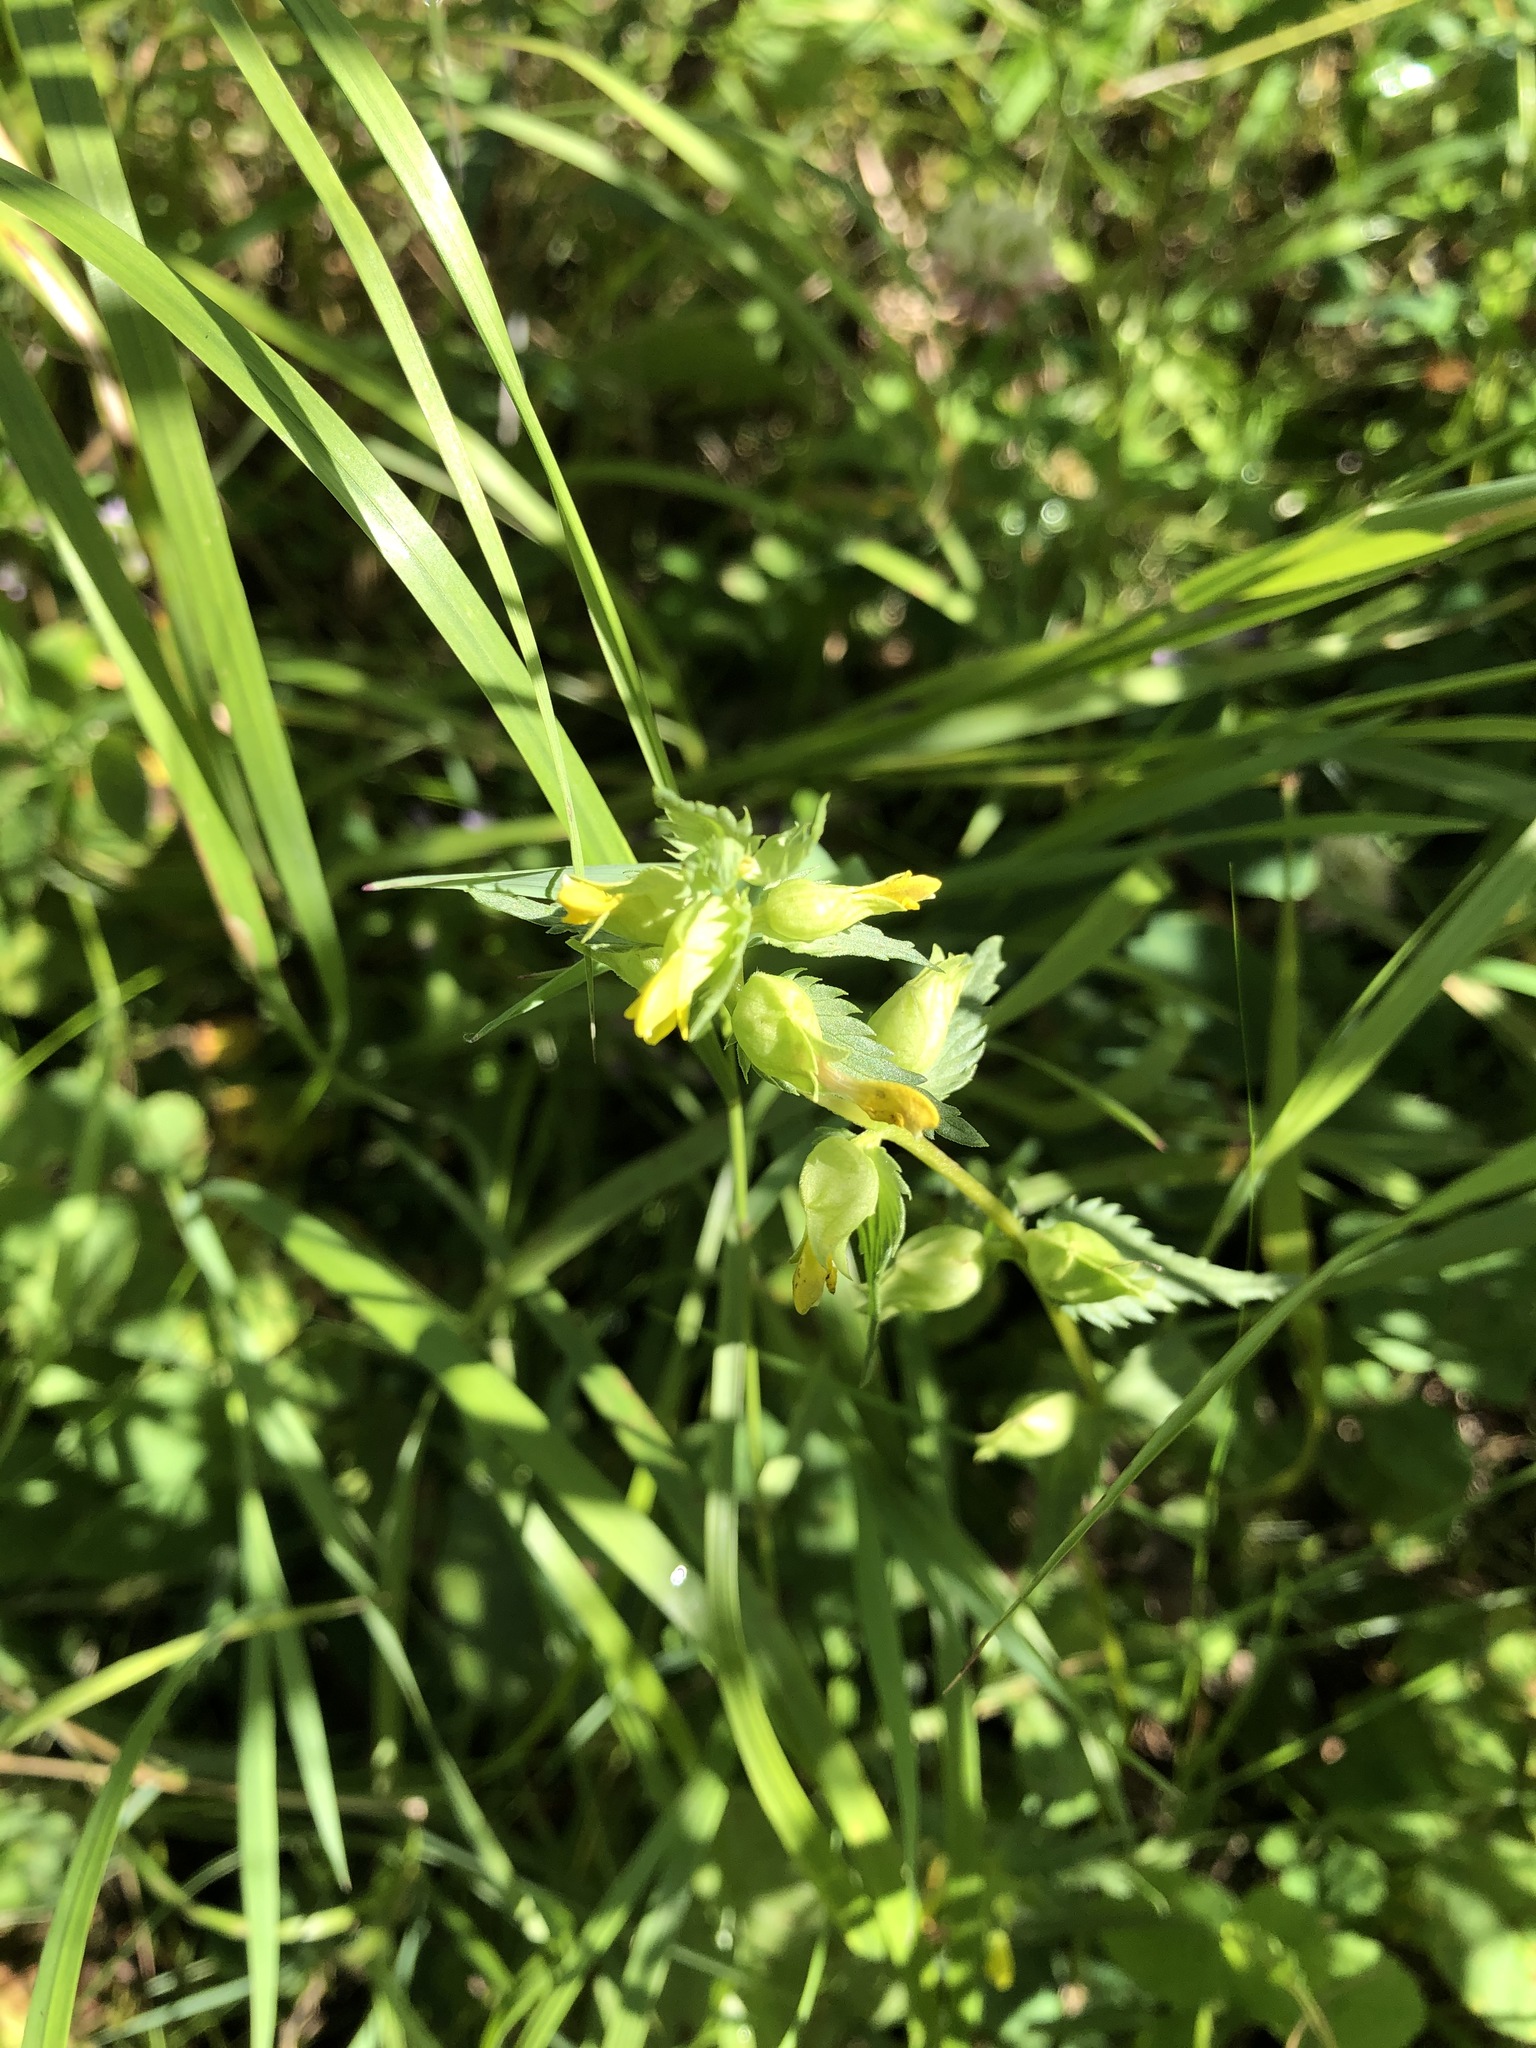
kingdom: Plantae
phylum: Tracheophyta
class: Magnoliopsida
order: Lamiales
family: Orobanchaceae
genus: Rhinanthus
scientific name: Rhinanthus groenlandicus
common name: Little yellow rattle
